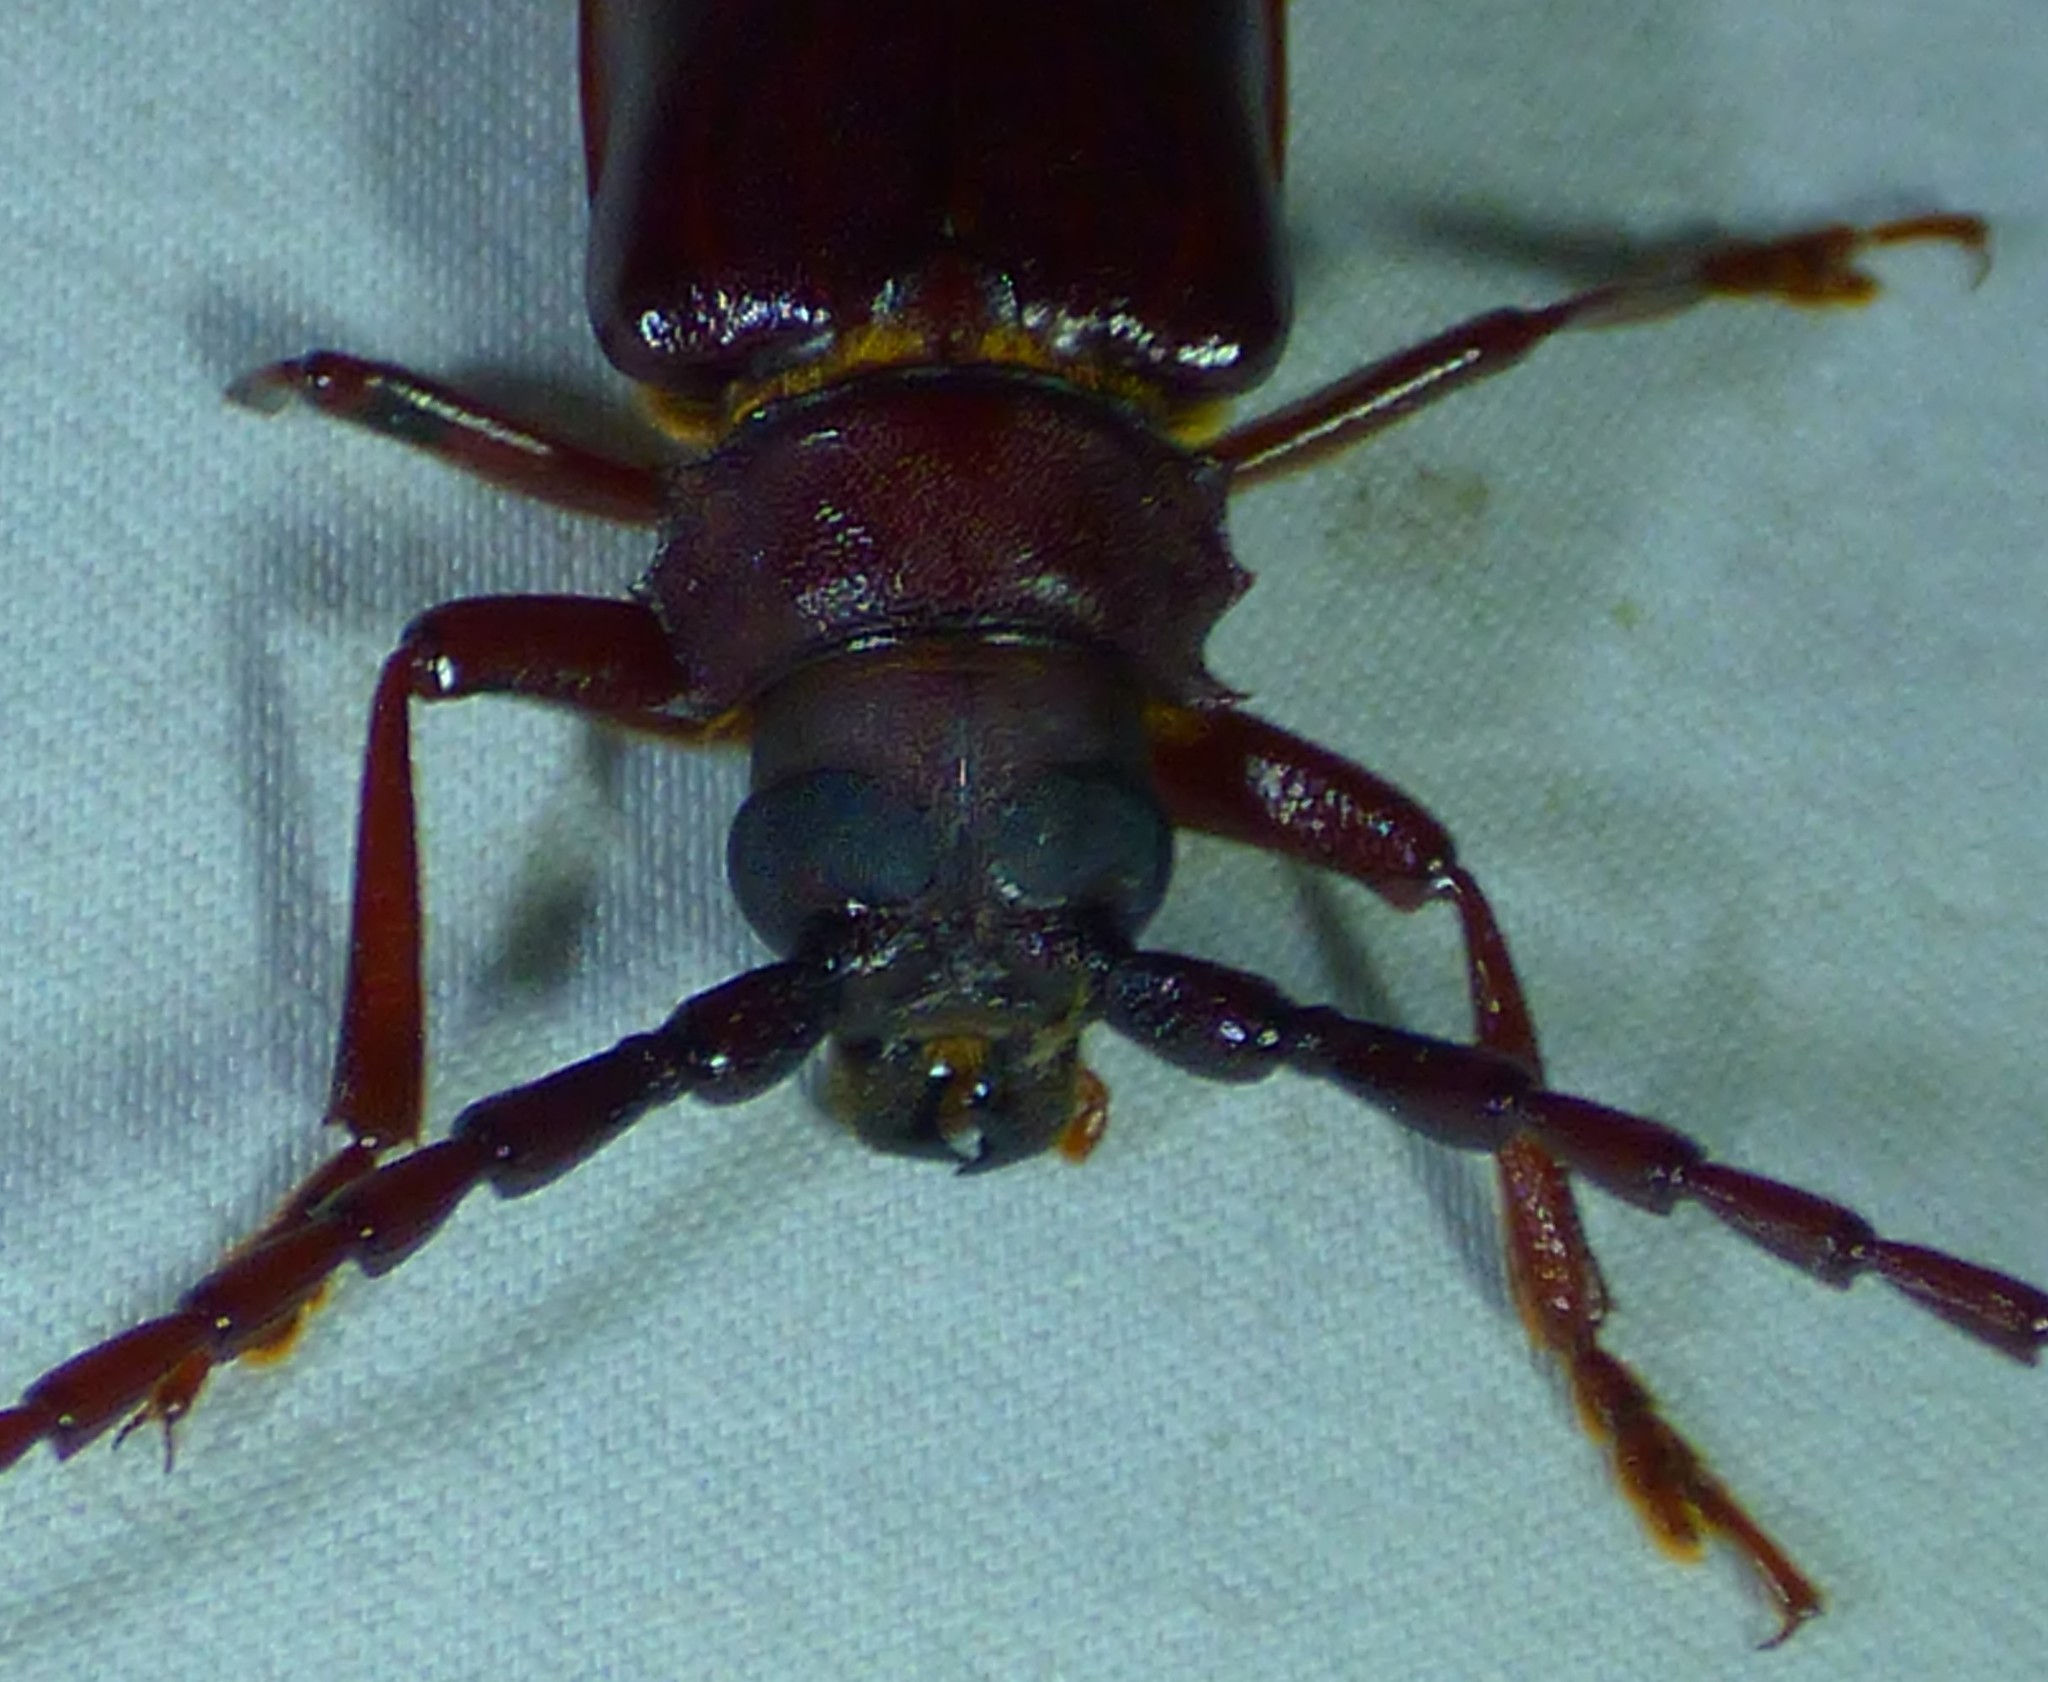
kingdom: Animalia
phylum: Arthropoda
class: Insecta
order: Coleoptera
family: Cerambycidae
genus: Orthosoma
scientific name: Orthosoma brunneum
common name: Brown prionid beetle
